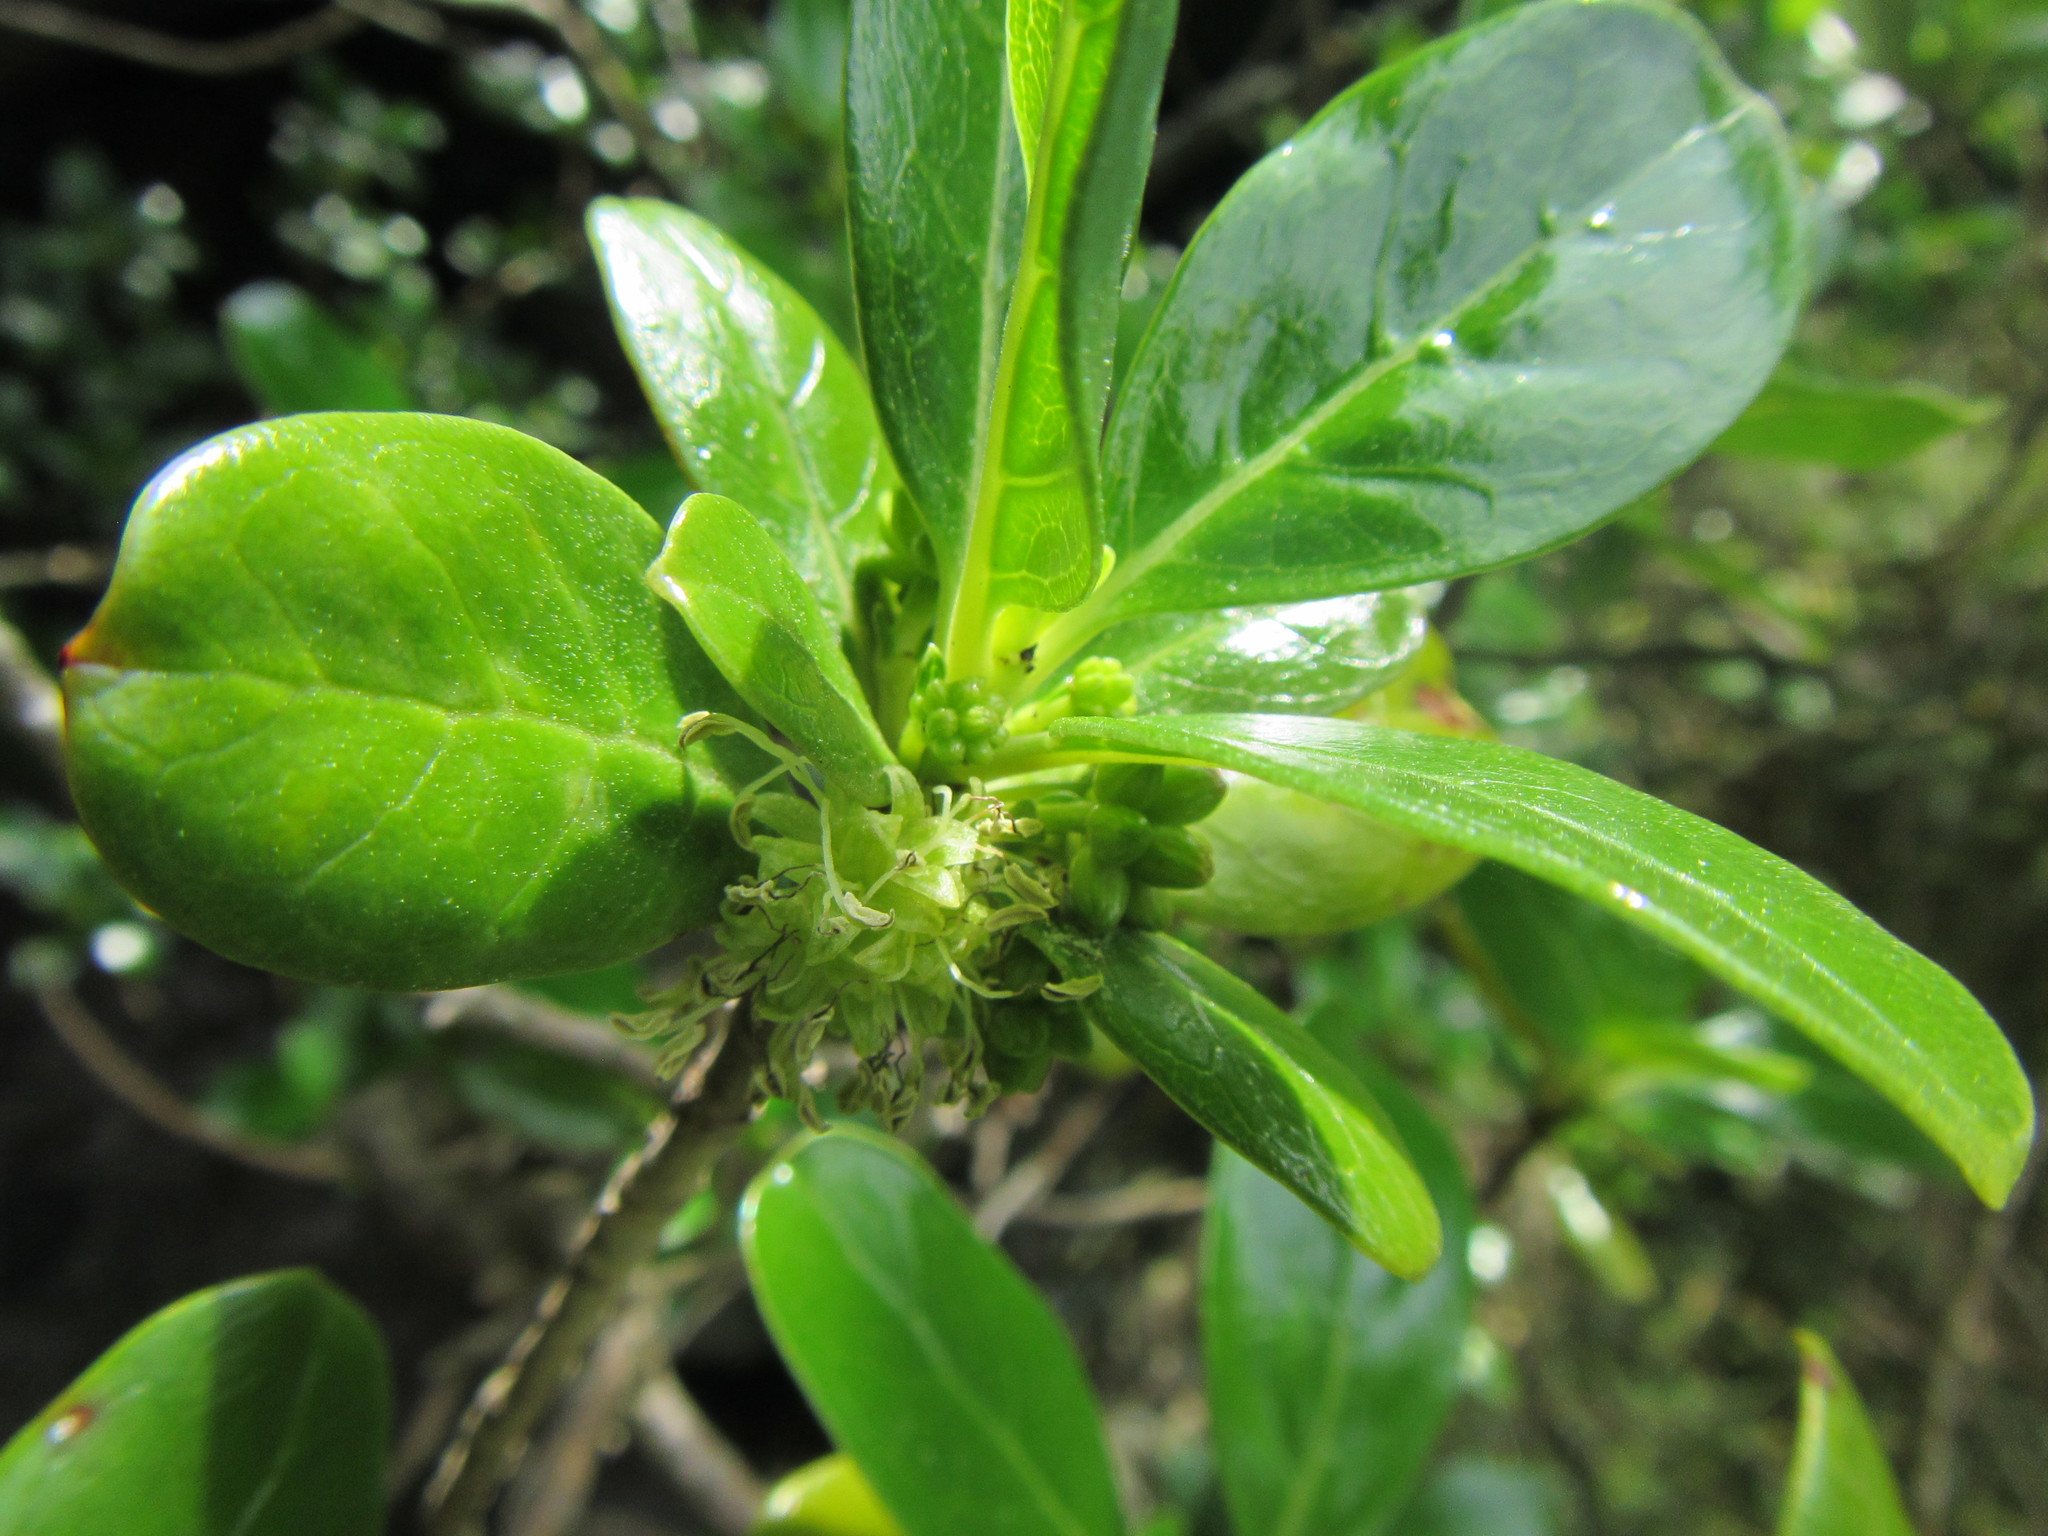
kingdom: Plantae
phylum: Tracheophyta
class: Magnoliopsida
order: Gentianales
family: Rubiaceae
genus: Coprosma
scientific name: Coprosma repens
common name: Tree bedstraw
